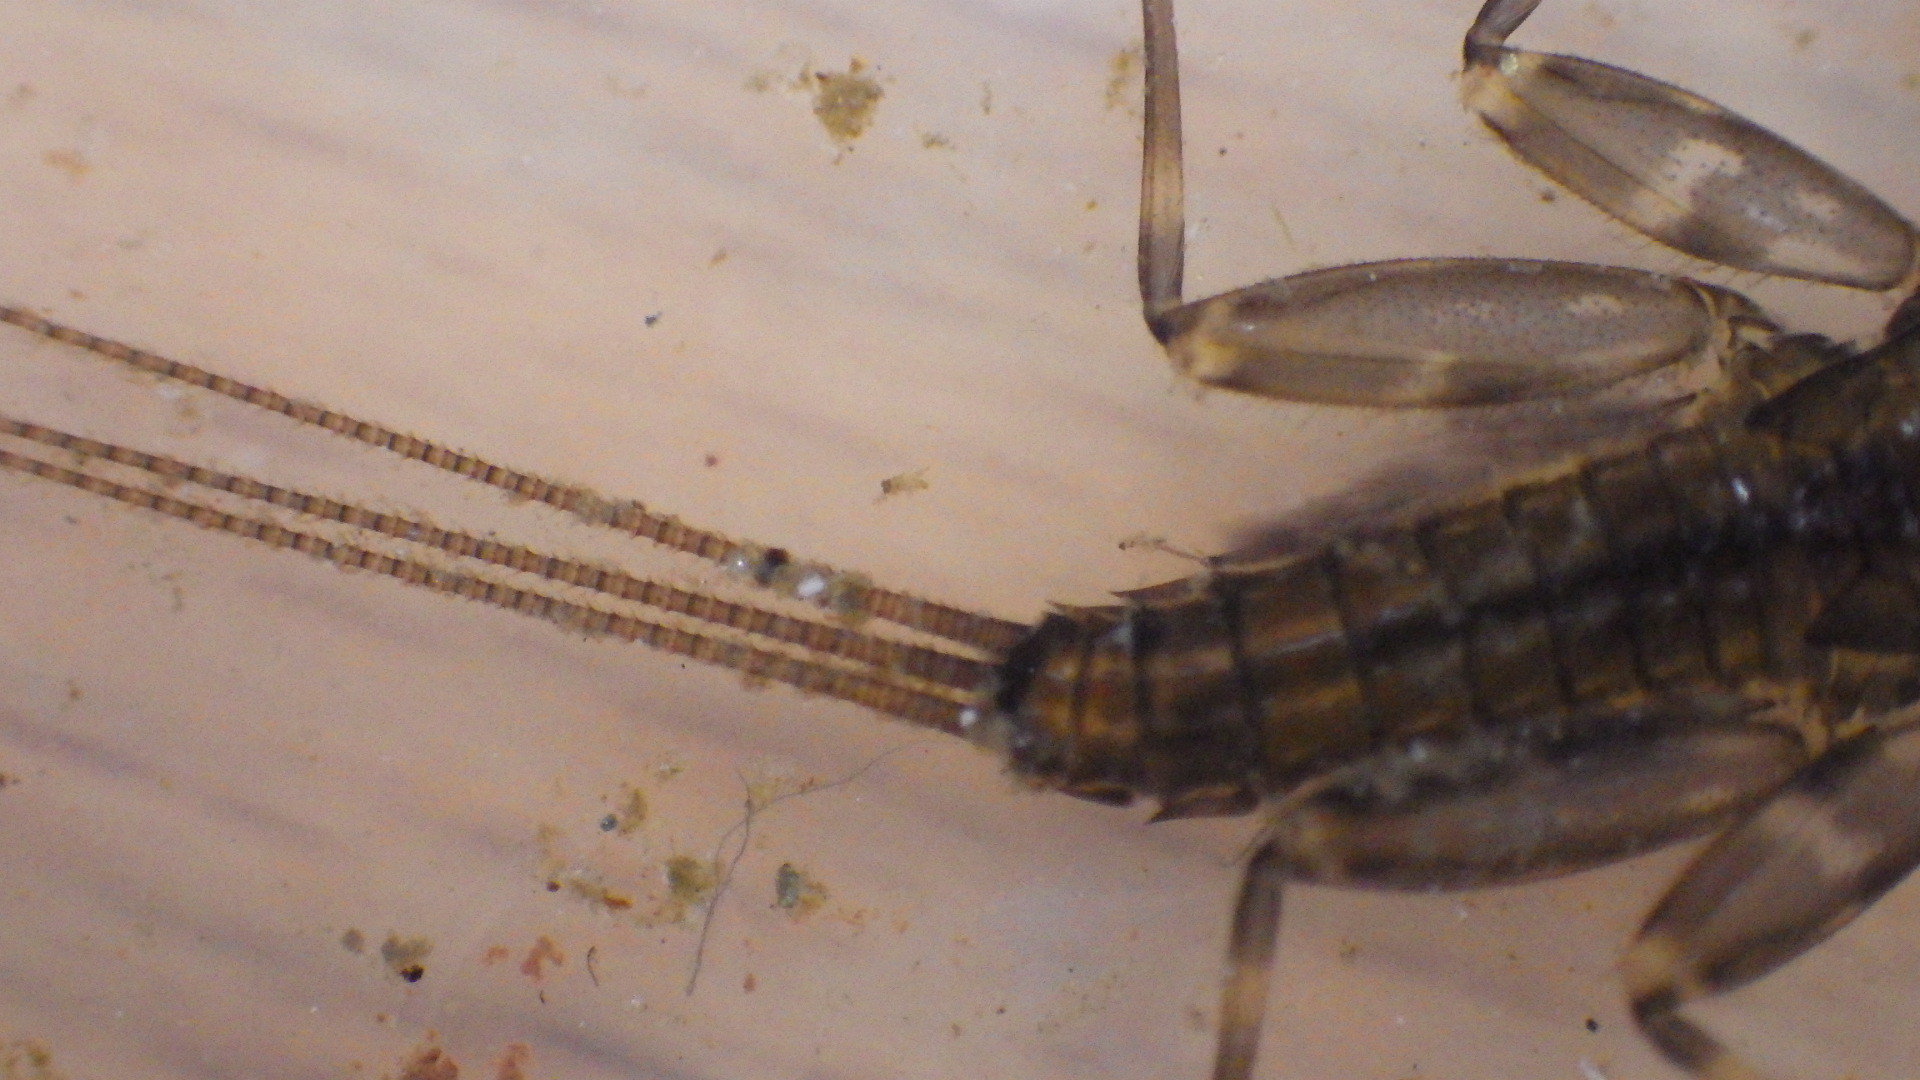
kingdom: Animalia
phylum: Arthropoda
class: Insecta
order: Ephemeroptera
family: Heptageniidae
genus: Stenacron
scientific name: Stenacron interpunctatum
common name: Orange cahill
